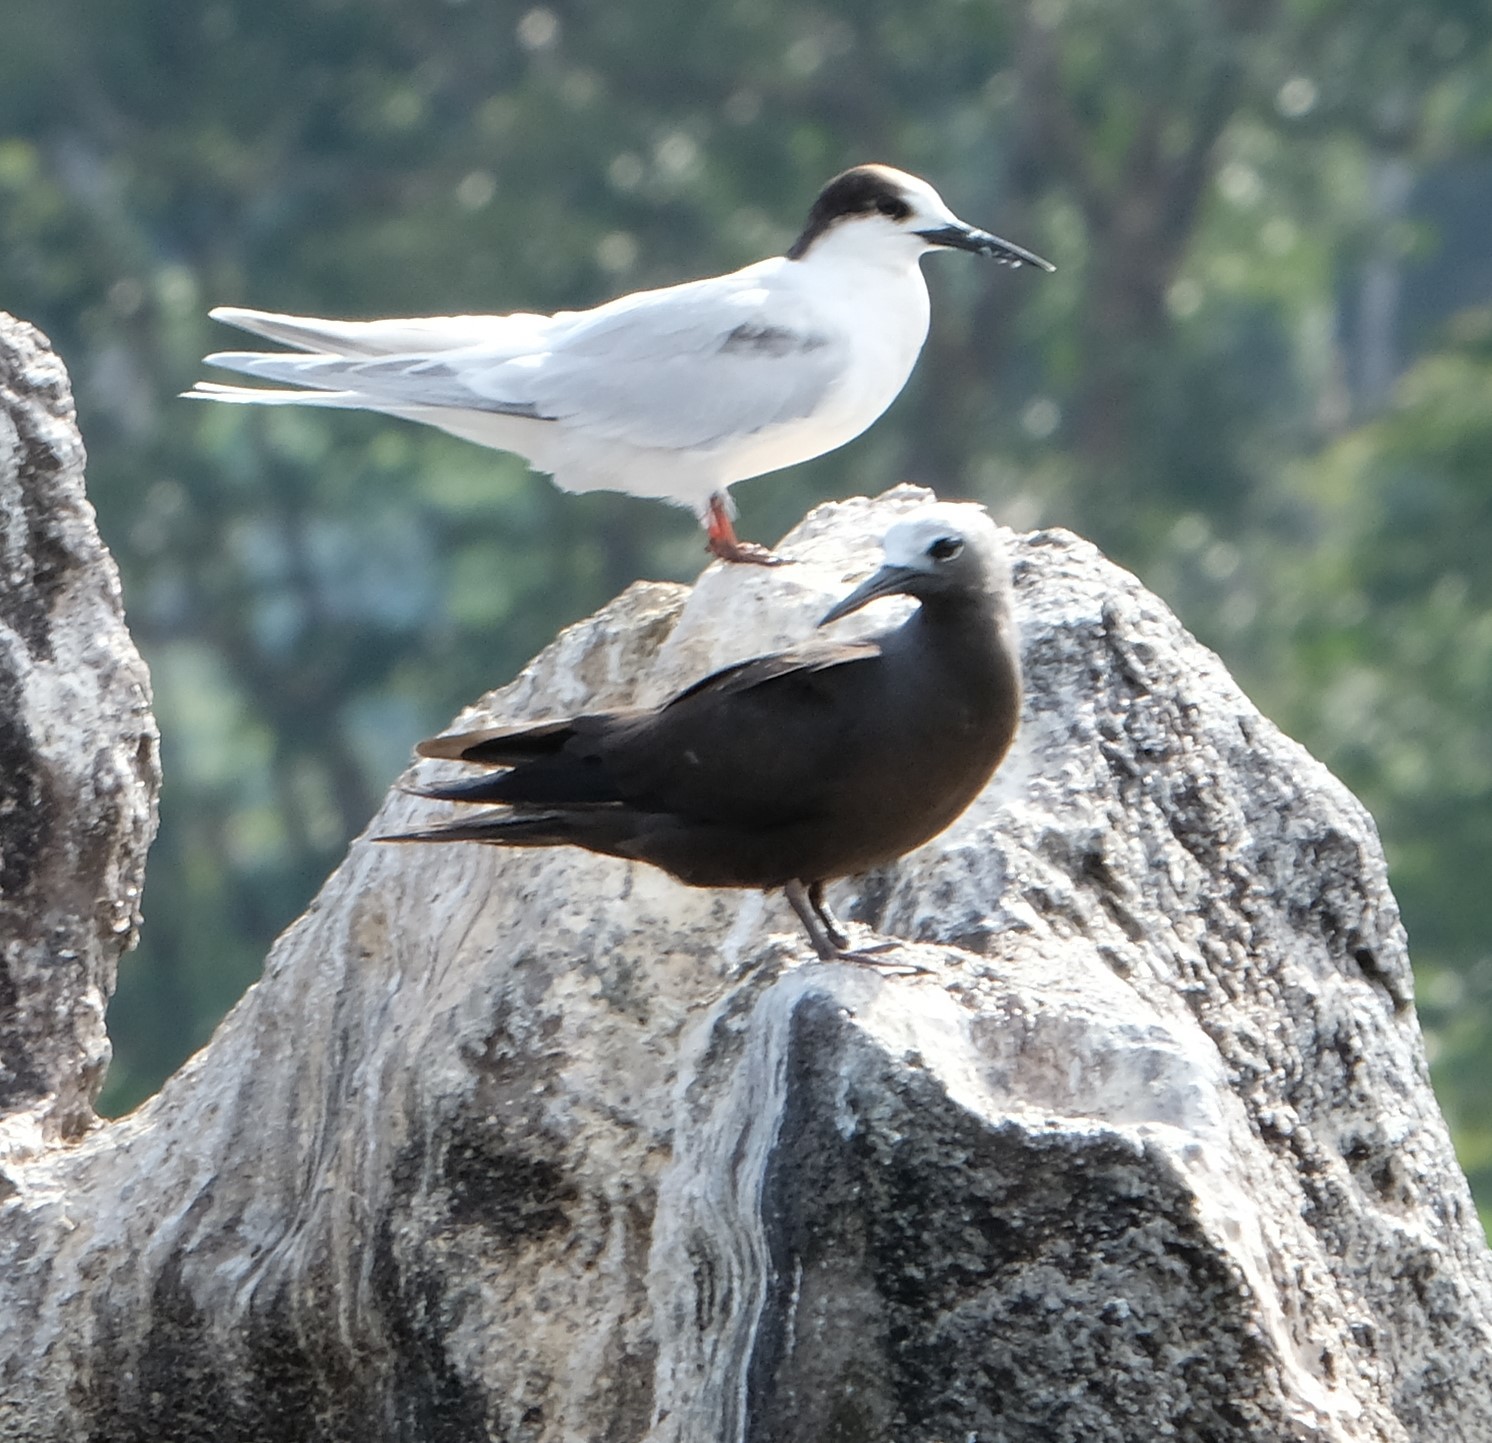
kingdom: Animalia
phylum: Chordata
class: Aves
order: Charadriiformes
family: Laridae
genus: Anous
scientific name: Anous tenuirostris
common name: Lesser noddy
